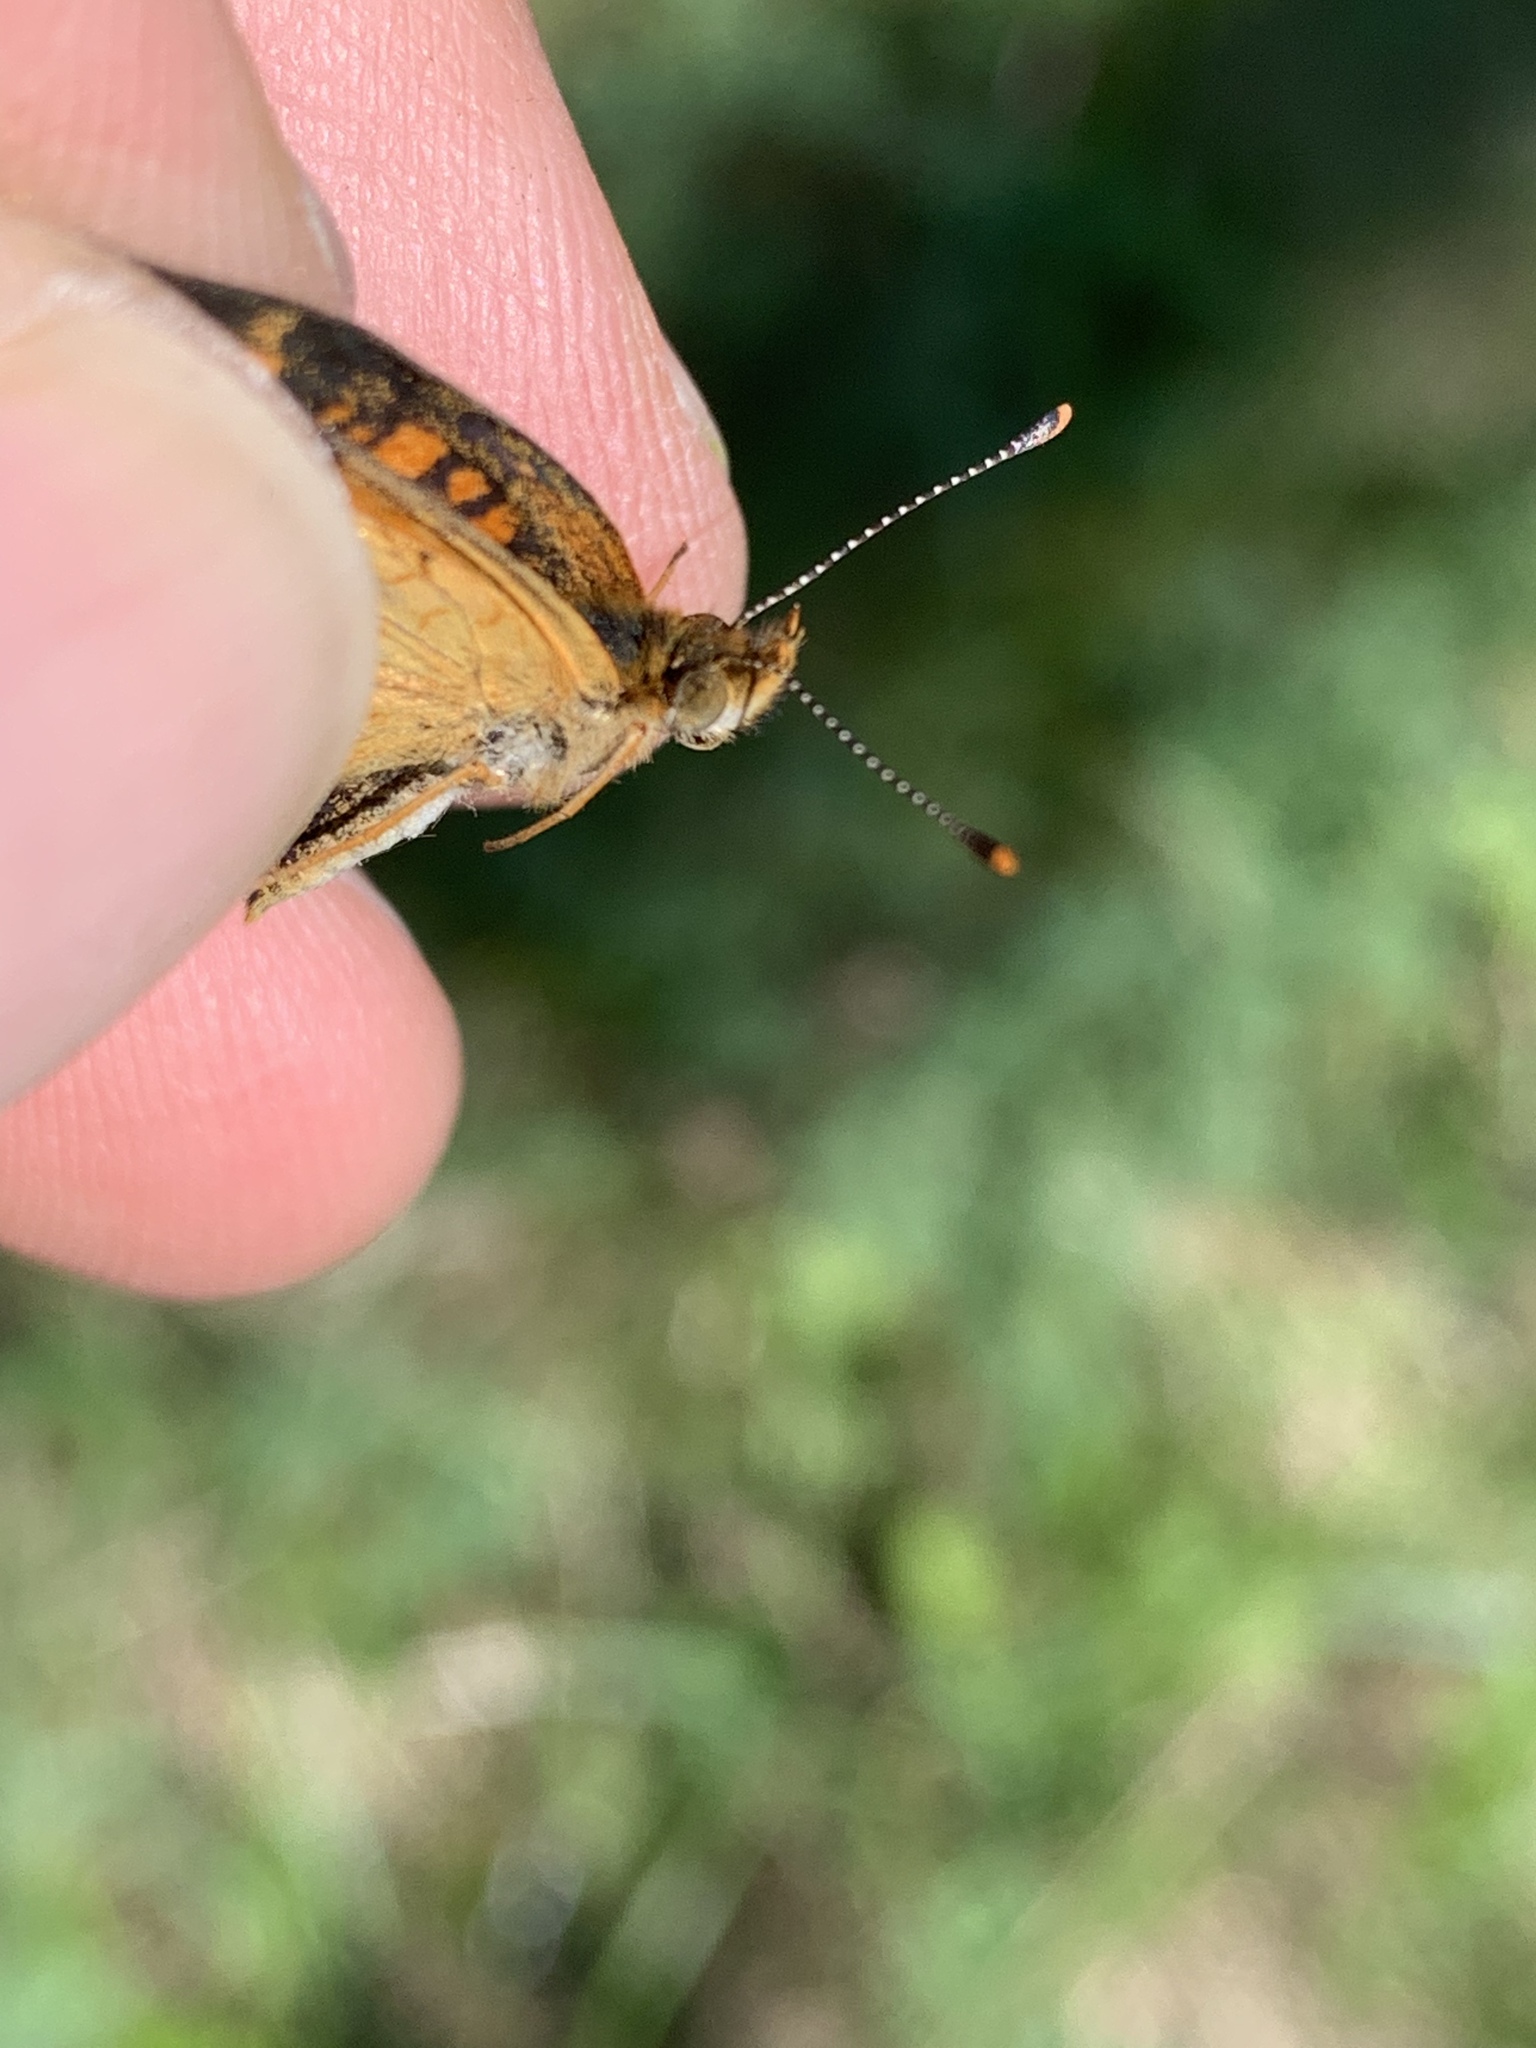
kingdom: Animalia
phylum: Arthropoda
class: Insecta
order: Lepidoptera
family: Nymphalidae
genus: Phyciodes
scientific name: Phyciodes tharos
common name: Pearl crescent
